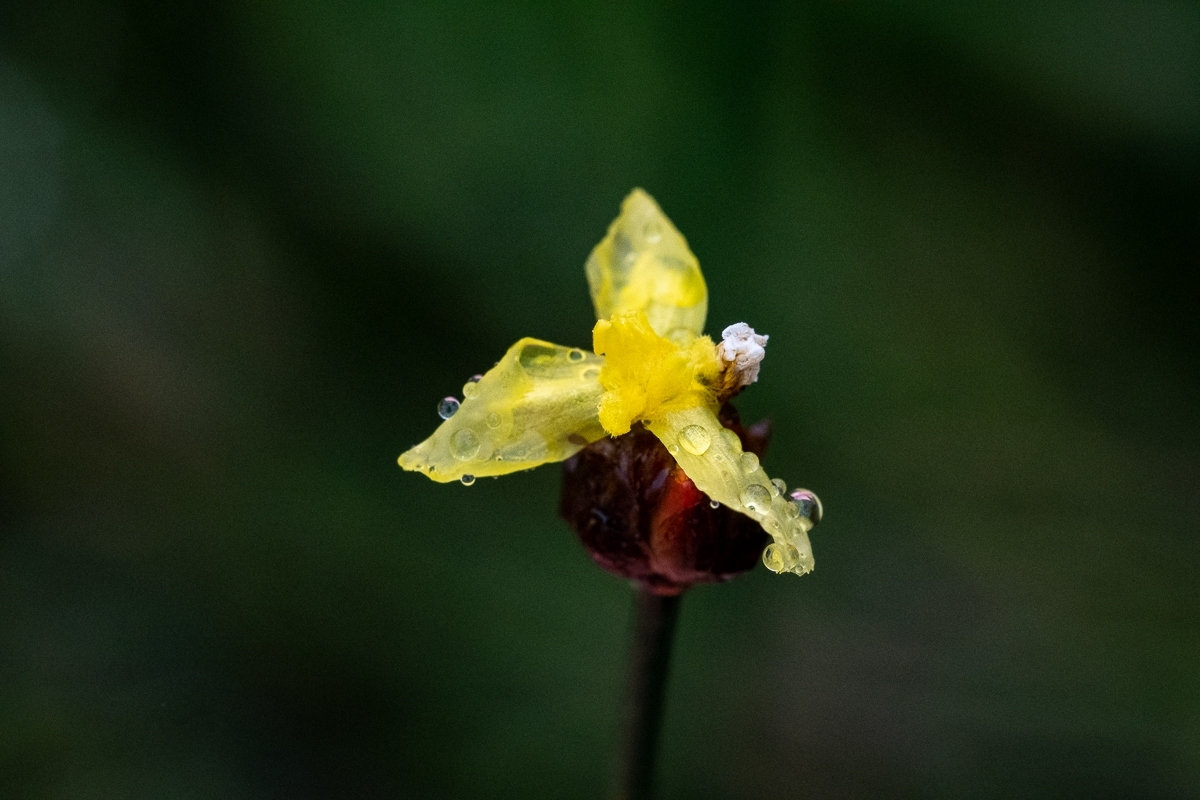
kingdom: Plantae
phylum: Tracheophyta
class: Liliopsida
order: Poales
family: Xyridaceae
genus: Xyris
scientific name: Xyris capensis
